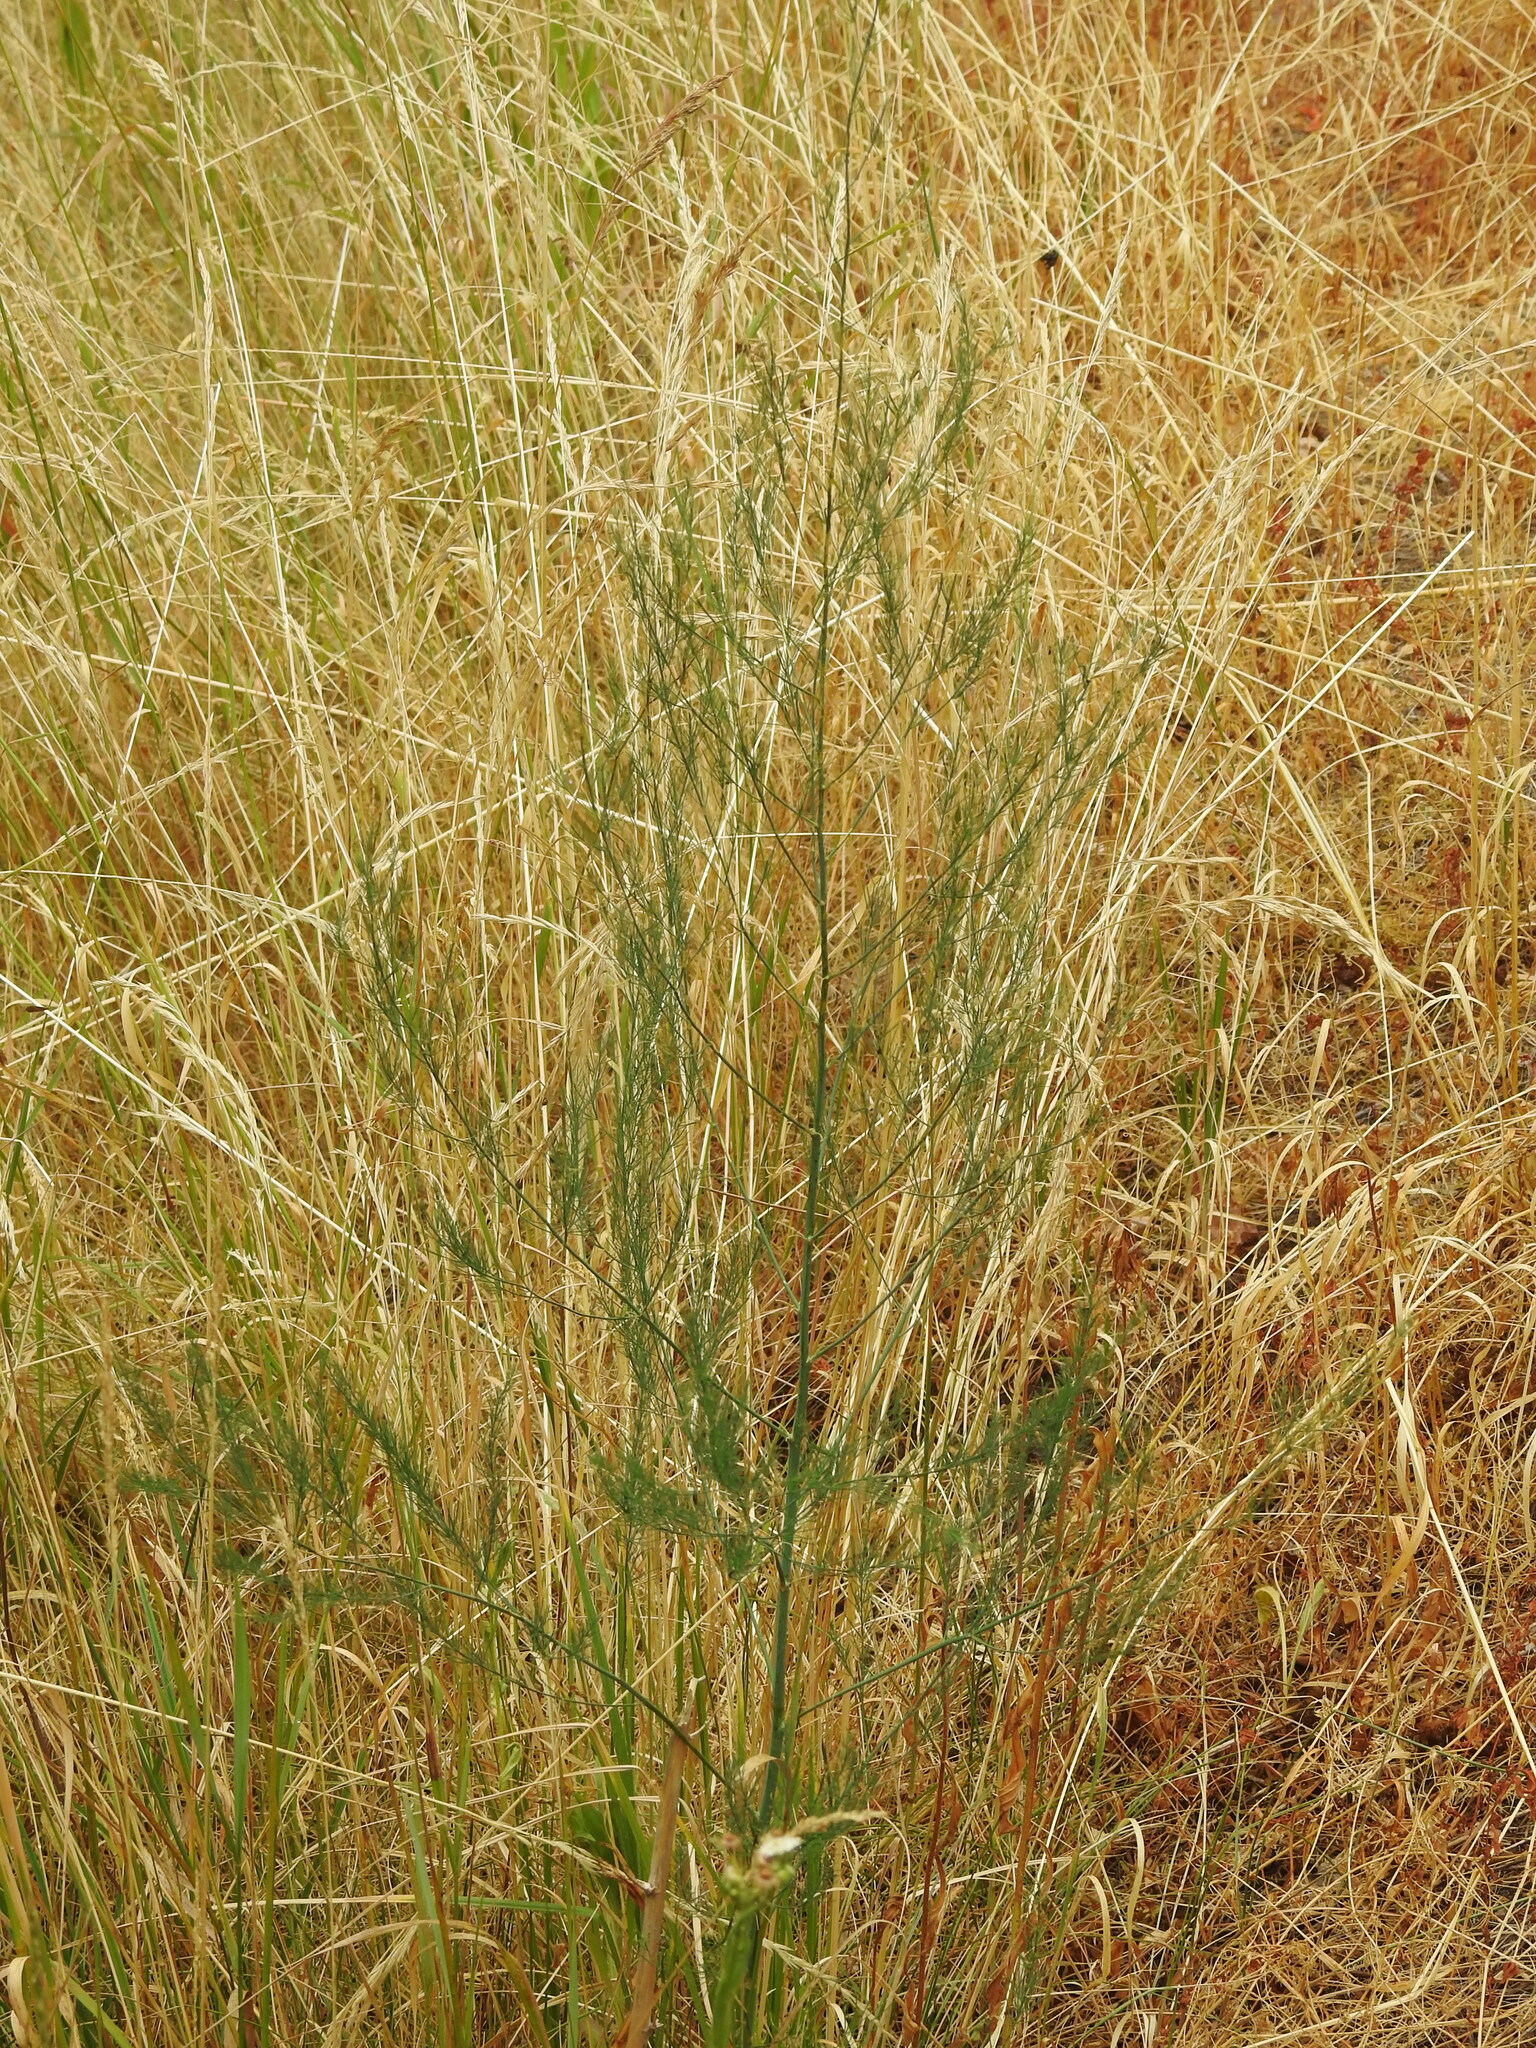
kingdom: Plantae
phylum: Tracheophyta
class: Liliopsida
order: Asparagales
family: Asparagaceae
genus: Asparagus
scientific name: Asparagus officinalis
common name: Garden asparagus
